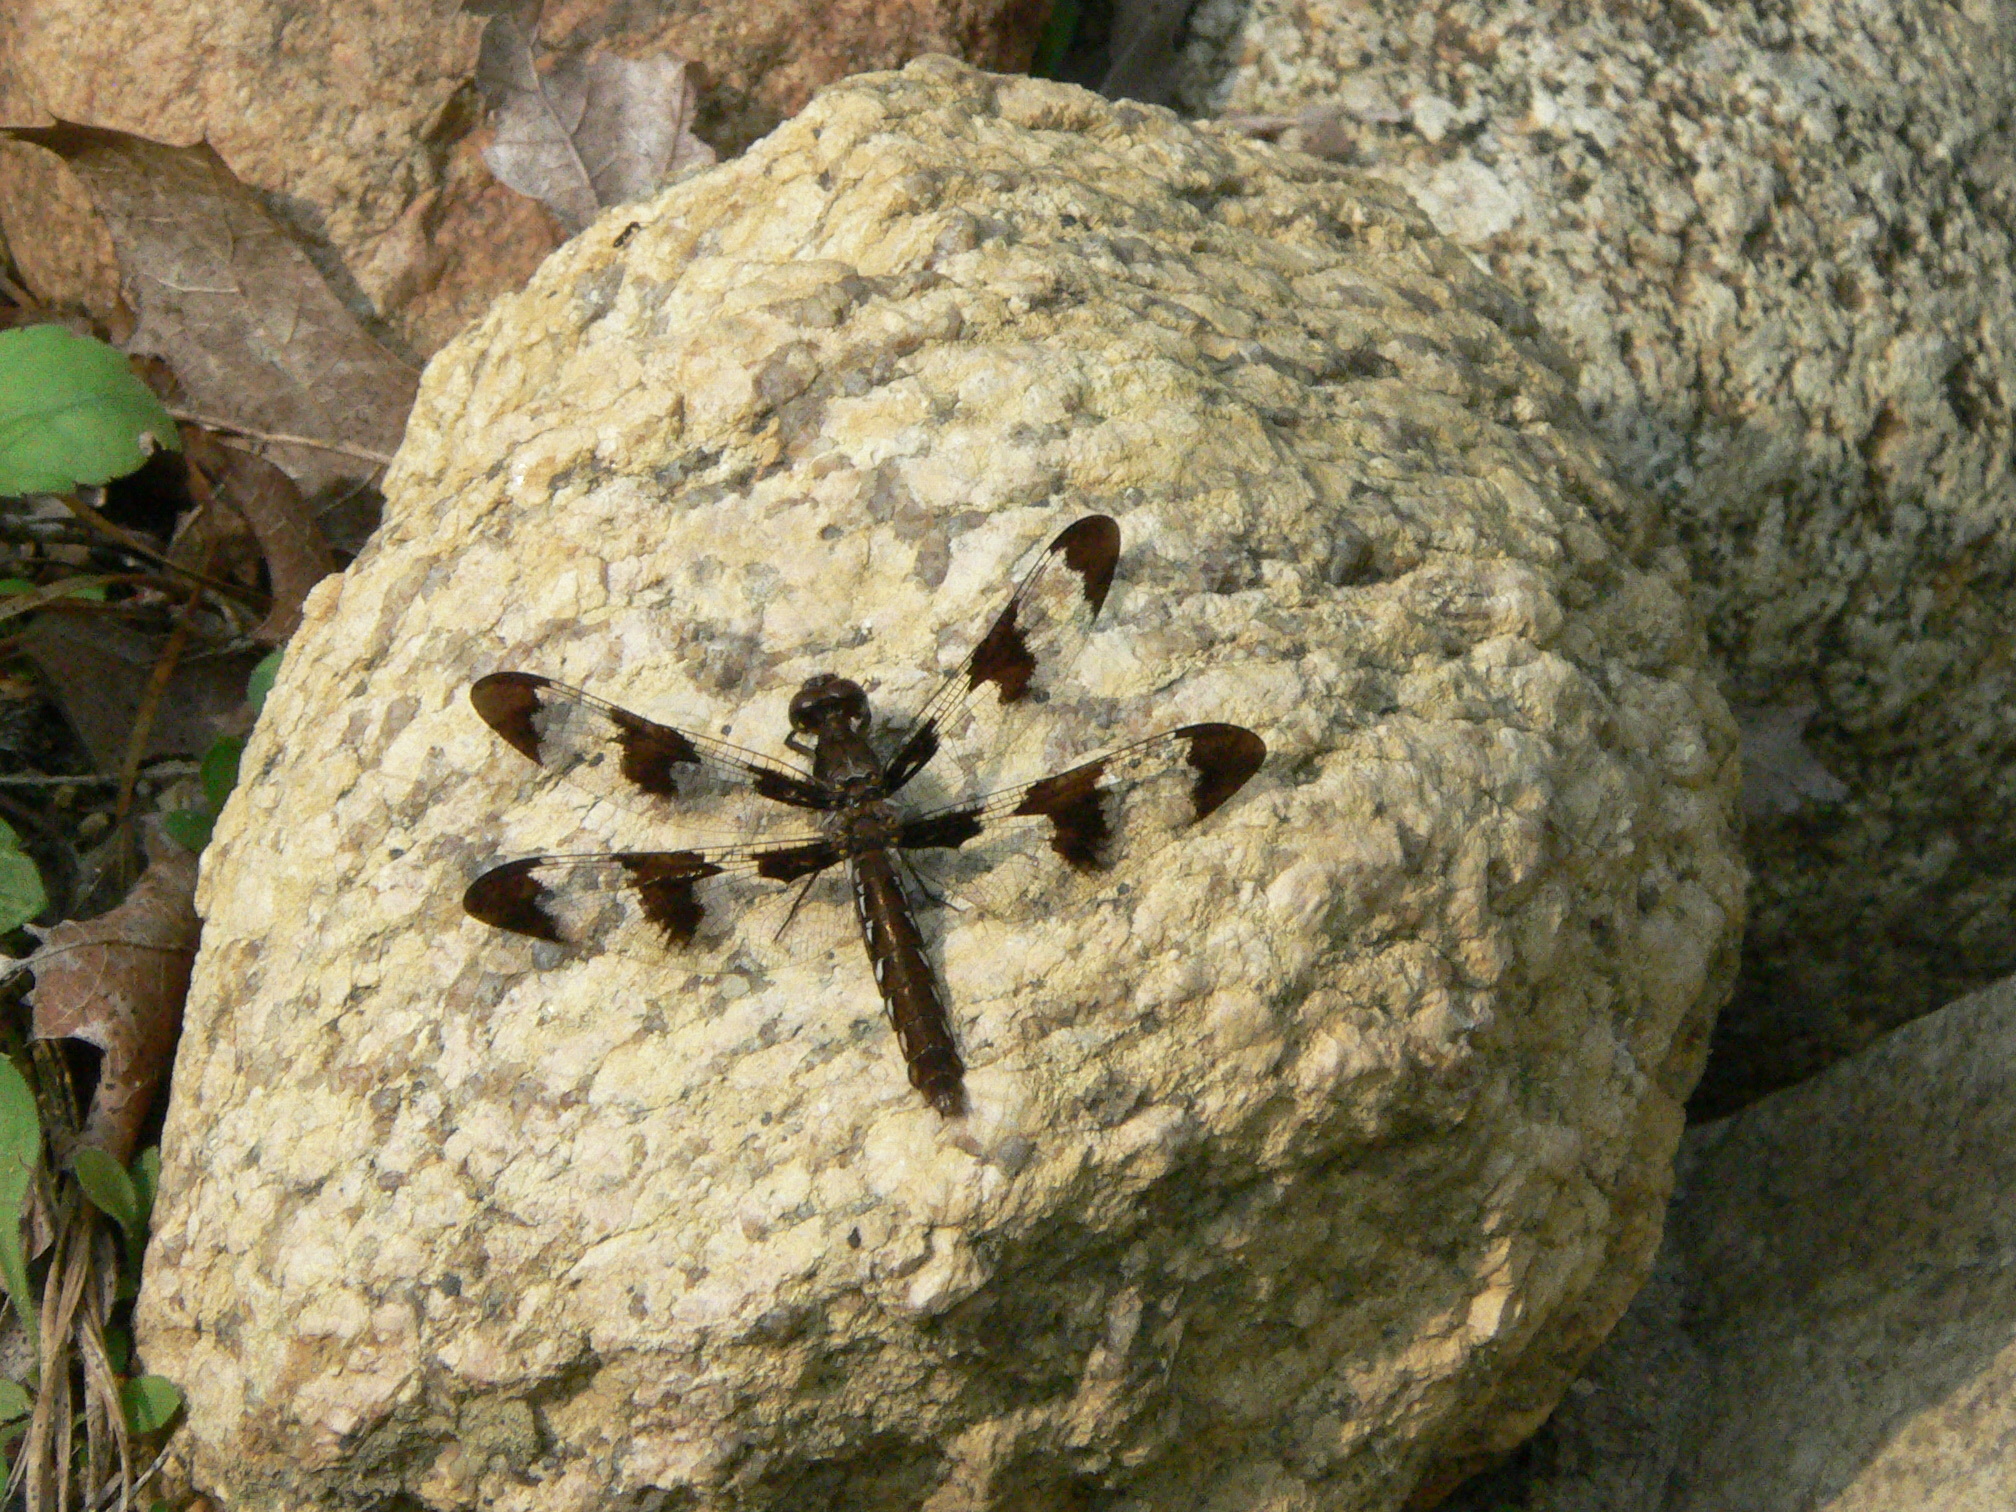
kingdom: Animalia
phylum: Arthropoda
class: Insecta
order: Odonata
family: Libellulidae
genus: Plathemis
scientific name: Plathemis lydia
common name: Common whitetail
